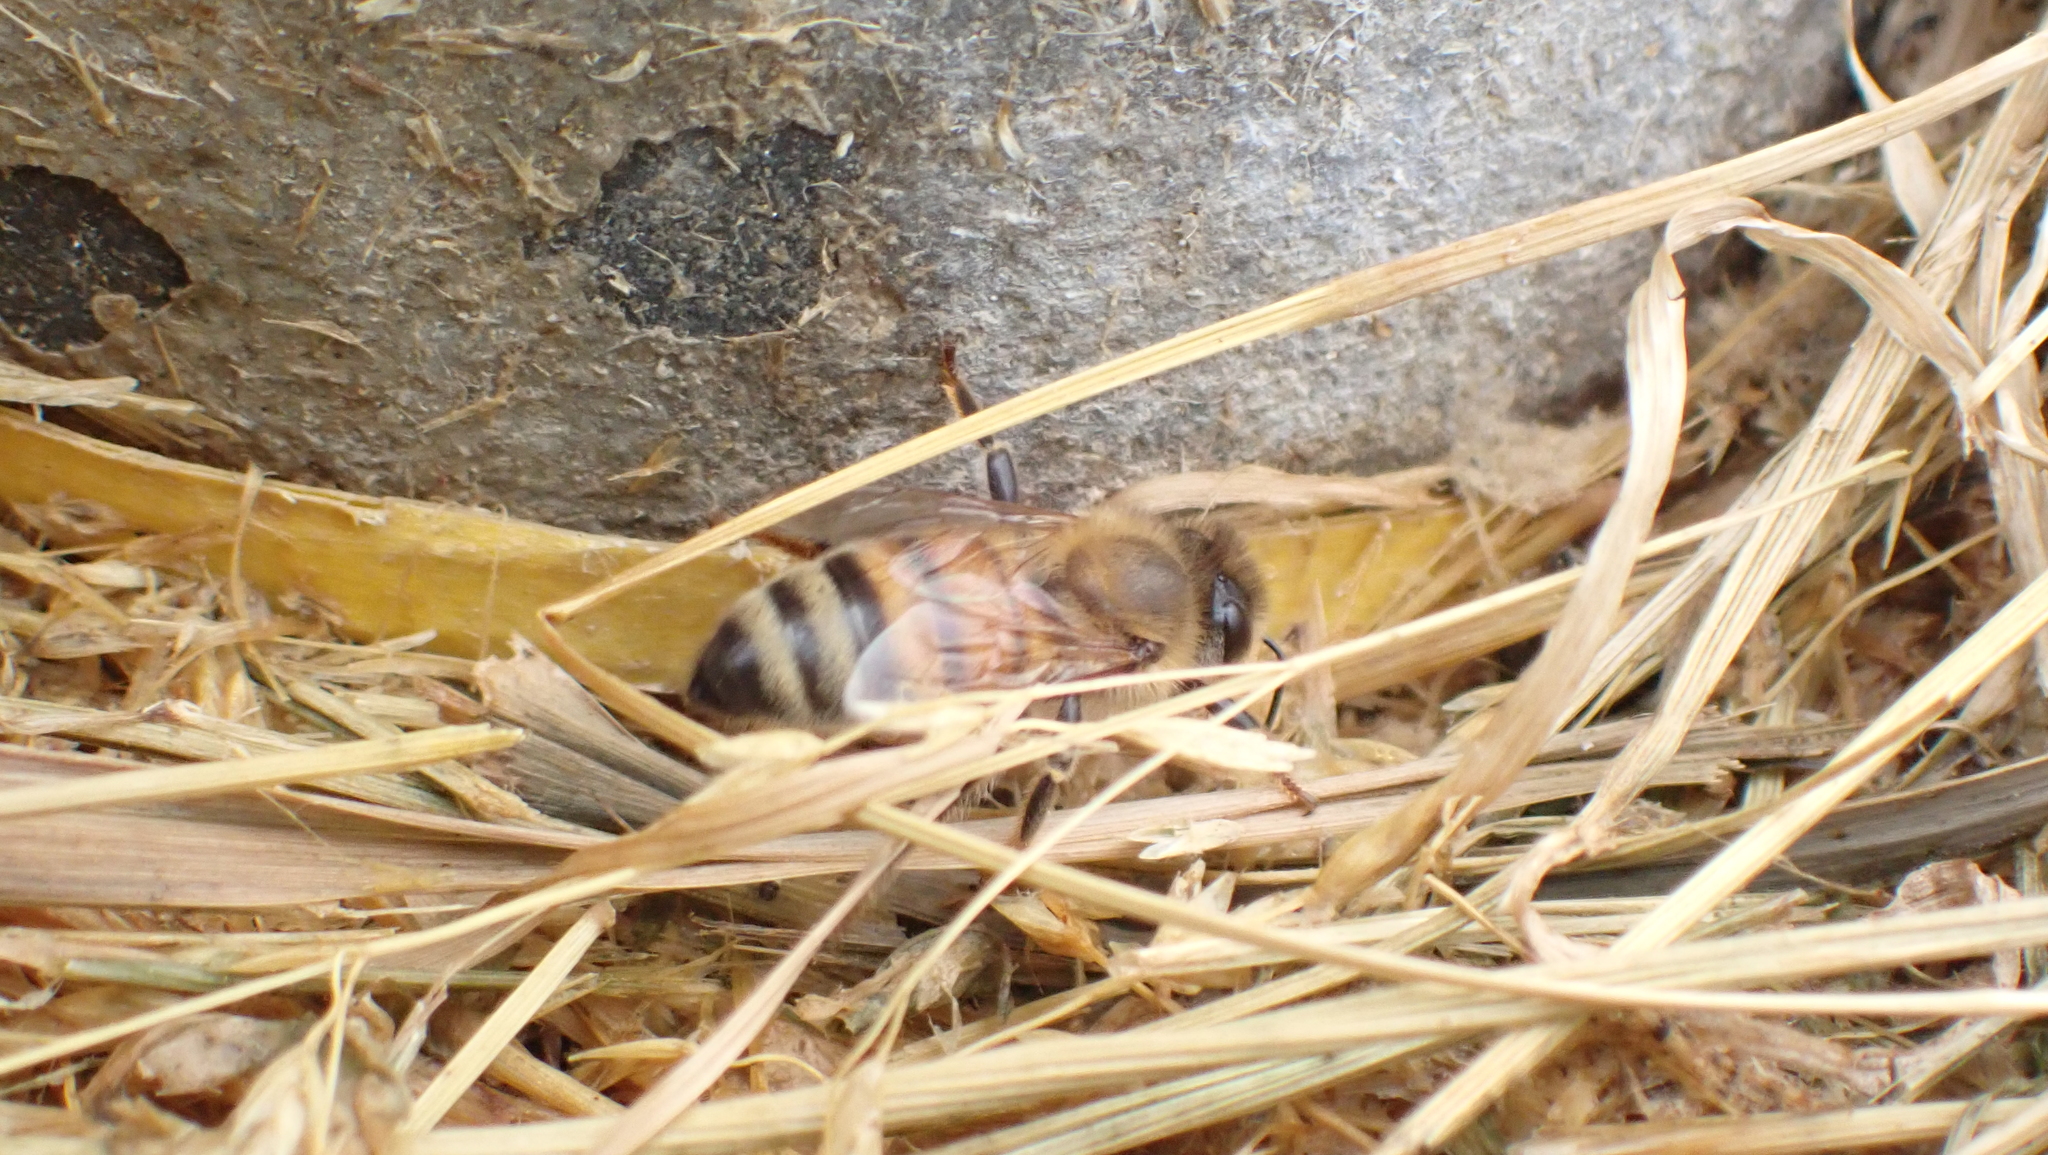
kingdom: Animalia
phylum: Arthropoda
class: Insecta
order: Hymenoptera
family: Apidae
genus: Apis
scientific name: Apis mellifera
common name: Honey bee
